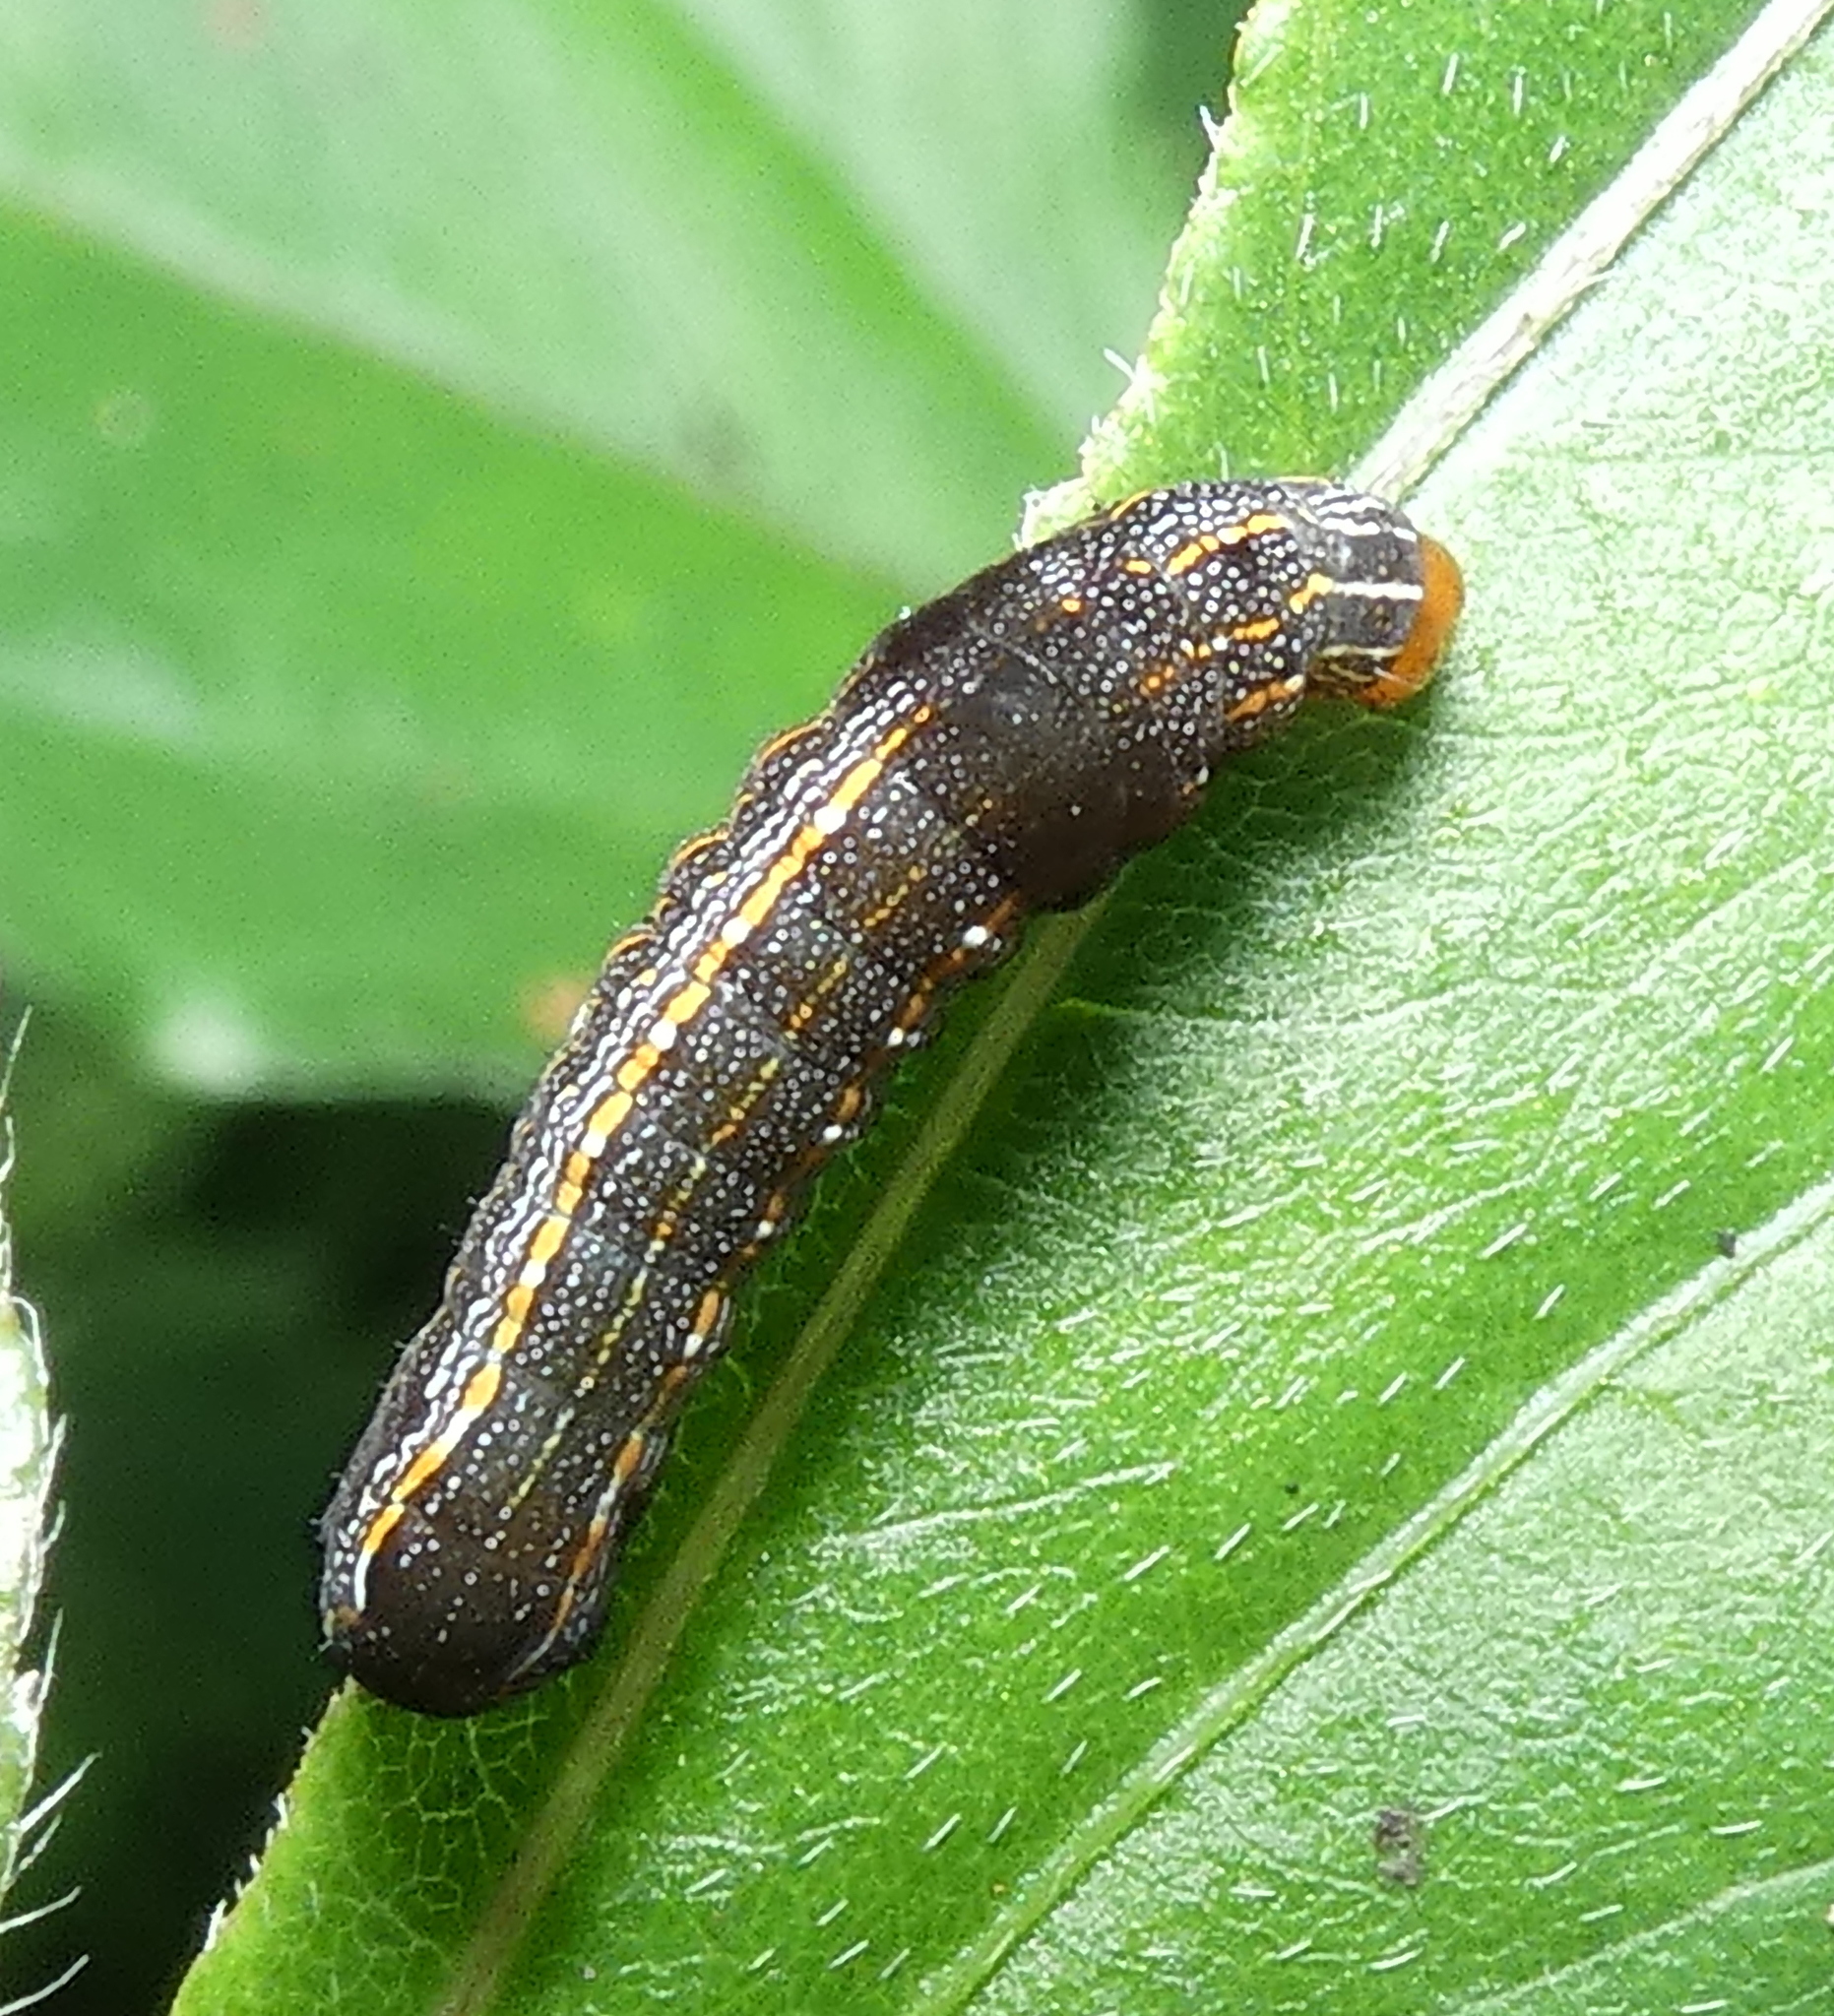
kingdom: Animalia
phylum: Arthropoda
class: Insecta
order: Lepidoptera
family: Noctuidae
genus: Spodoptera
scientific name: Spodoptera eridania
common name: Southern army worm
